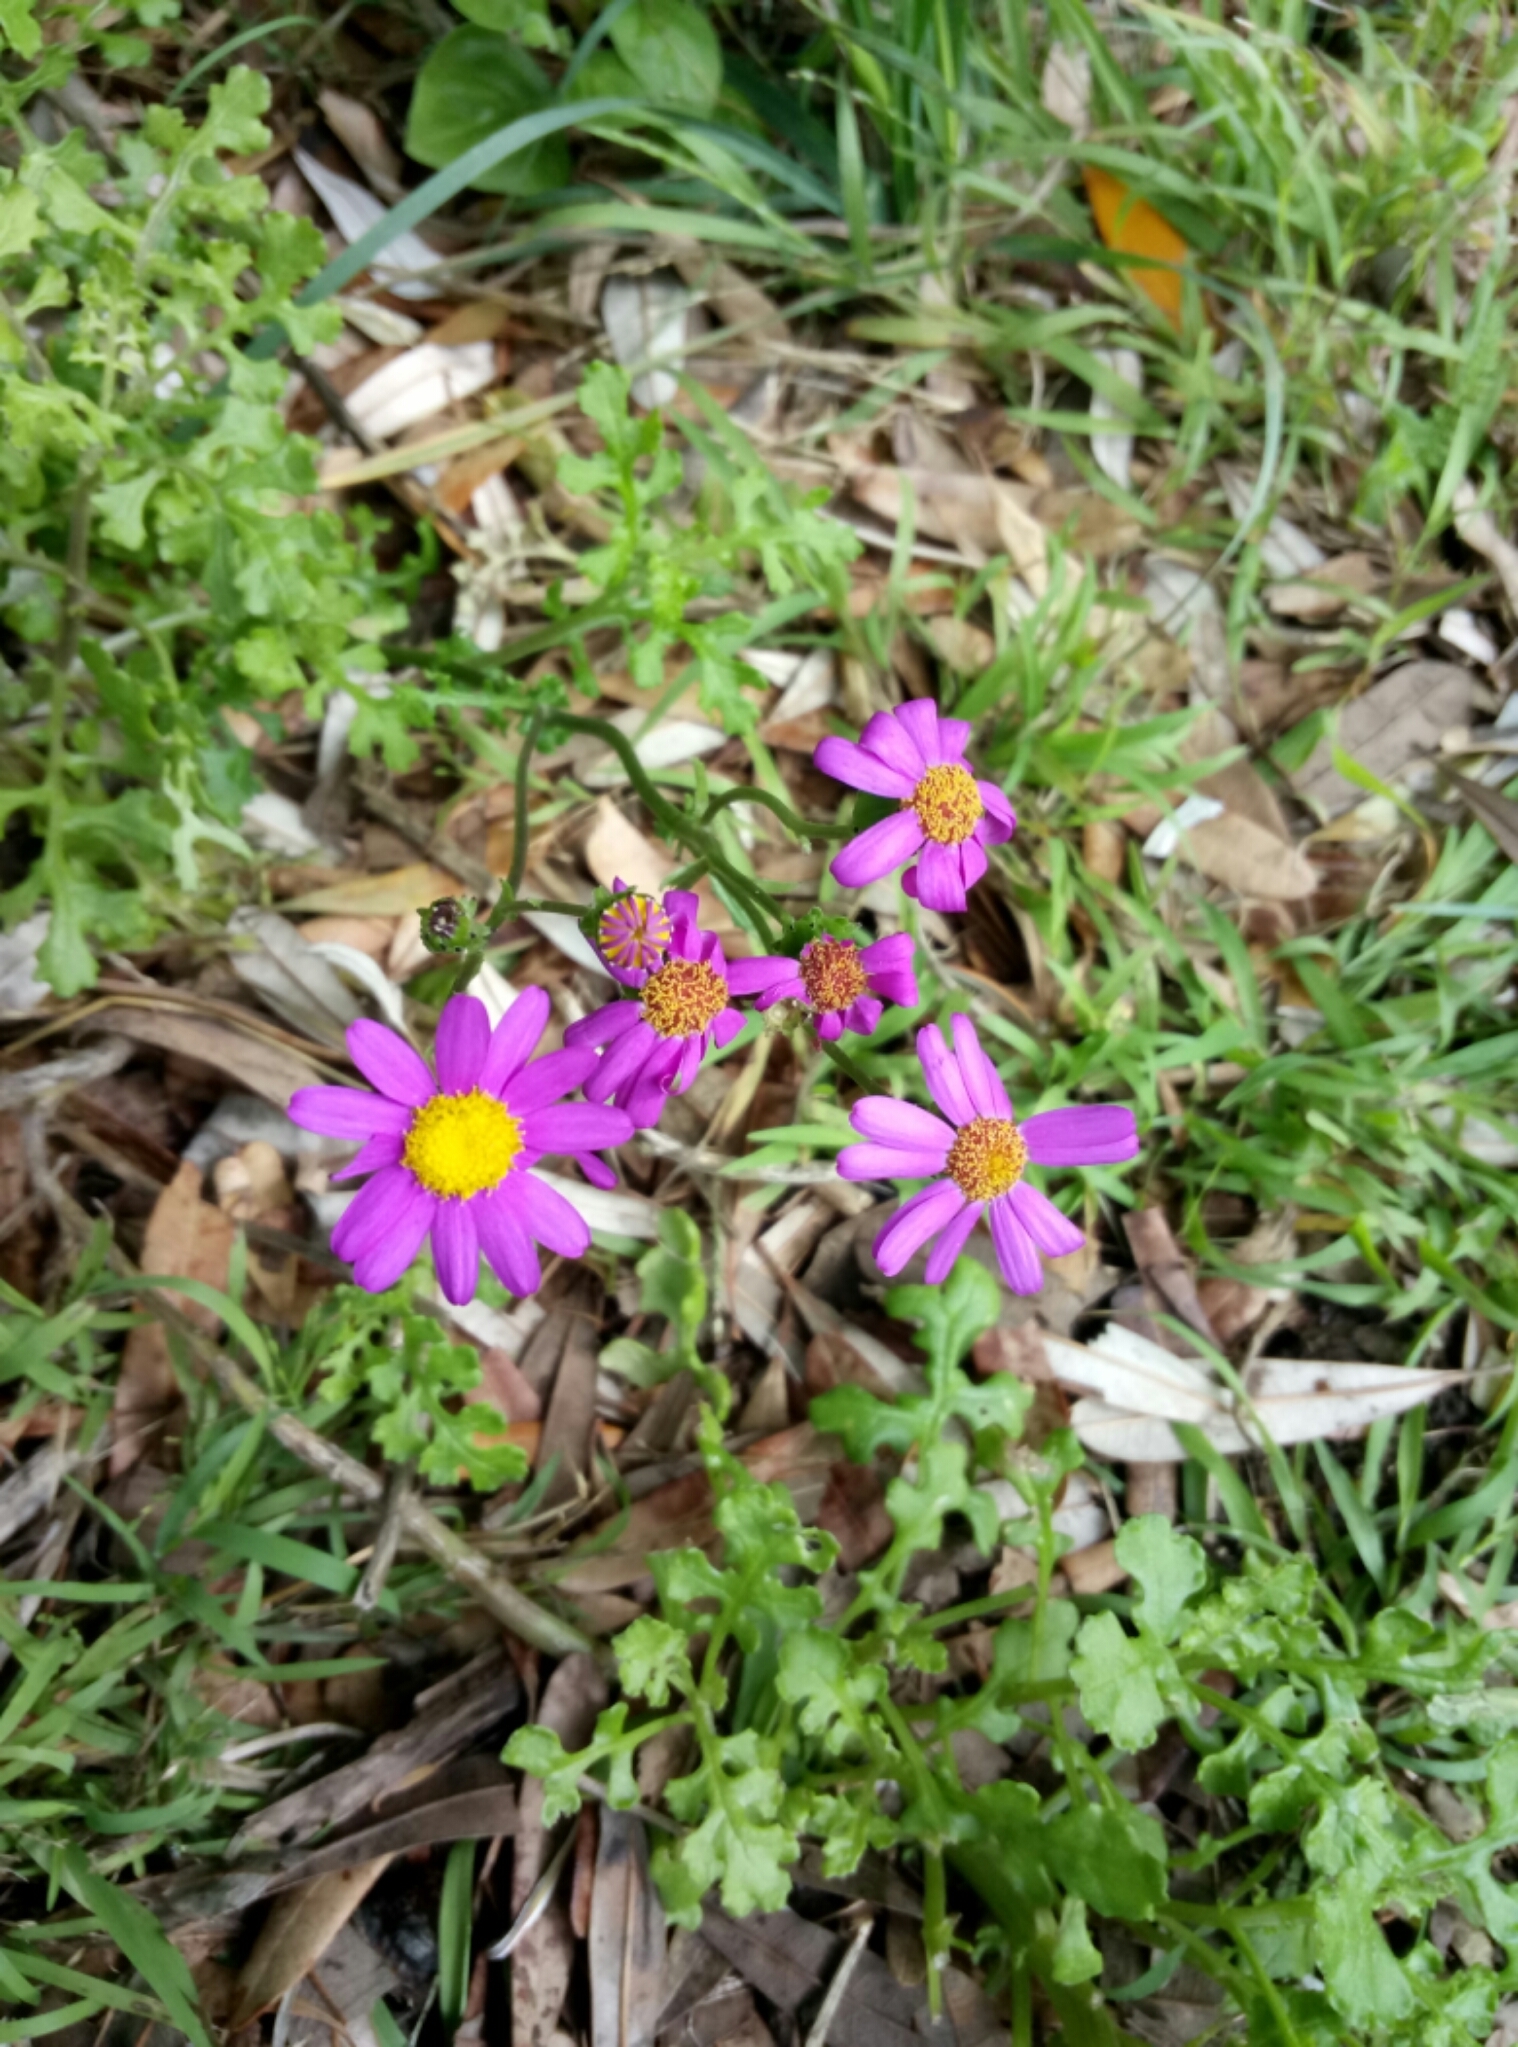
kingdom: Plantae
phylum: Tracheophyta
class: Magnoliopsida
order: Asterales
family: Asteraceae
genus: Senecio
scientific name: Senecio elegans
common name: Purple groundsel
